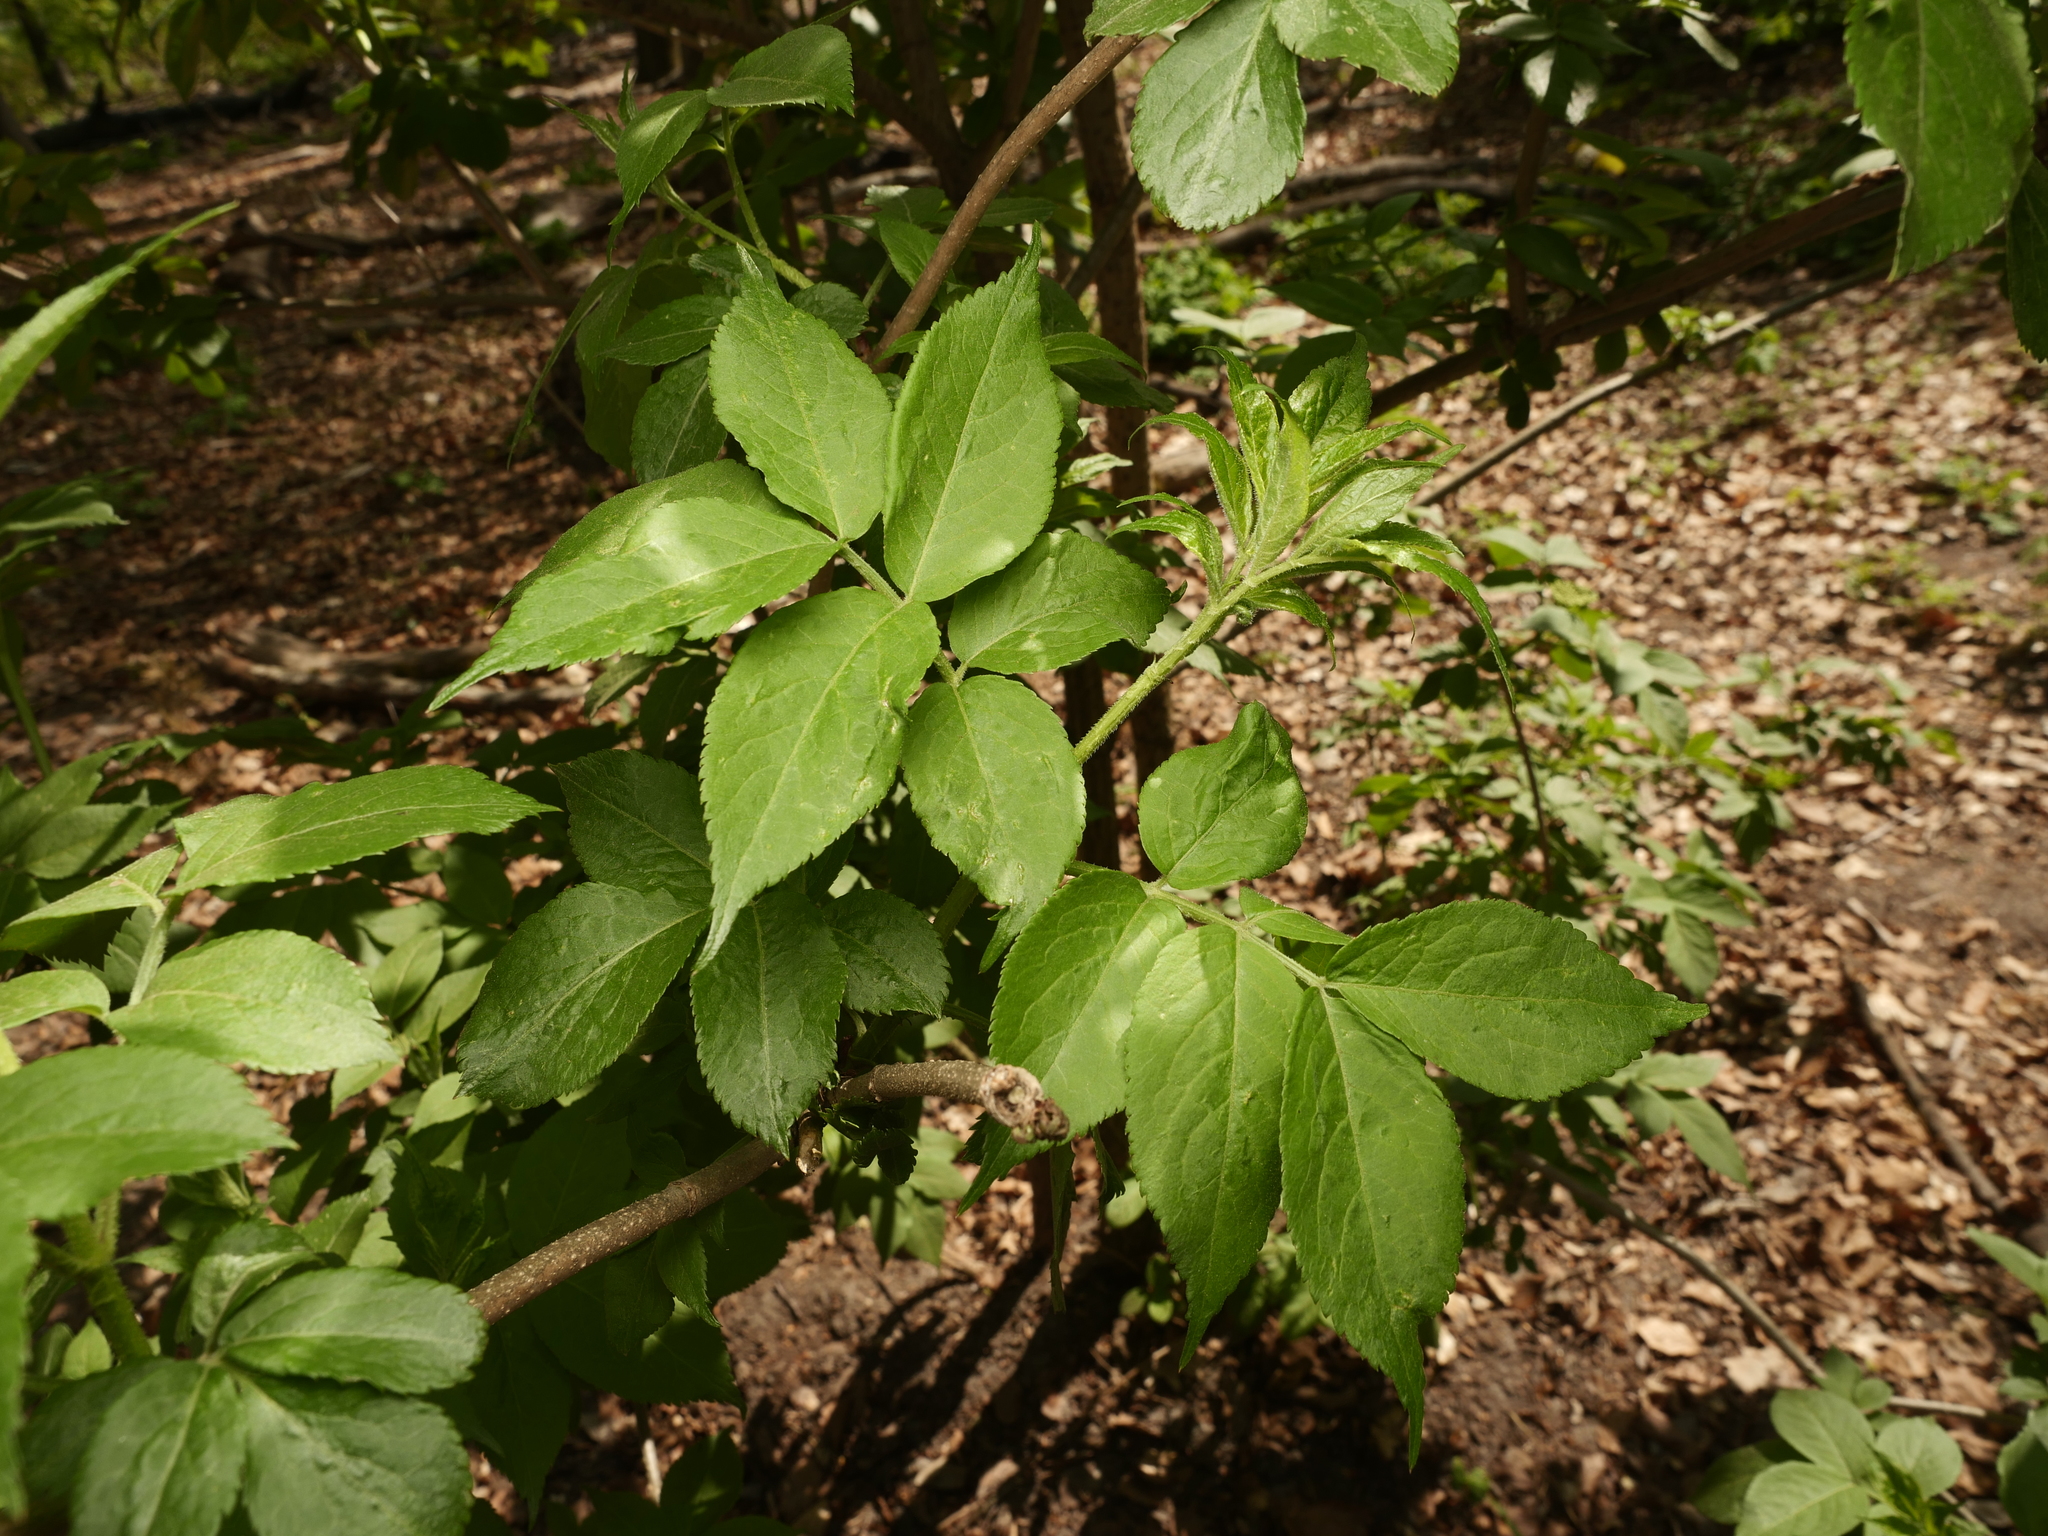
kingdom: Plantae
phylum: Tracheophyta
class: Magnoliopsida
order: Dipsacales
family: Viburnaceae
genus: Sambucus
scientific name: Sambucus nigra
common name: Elder
